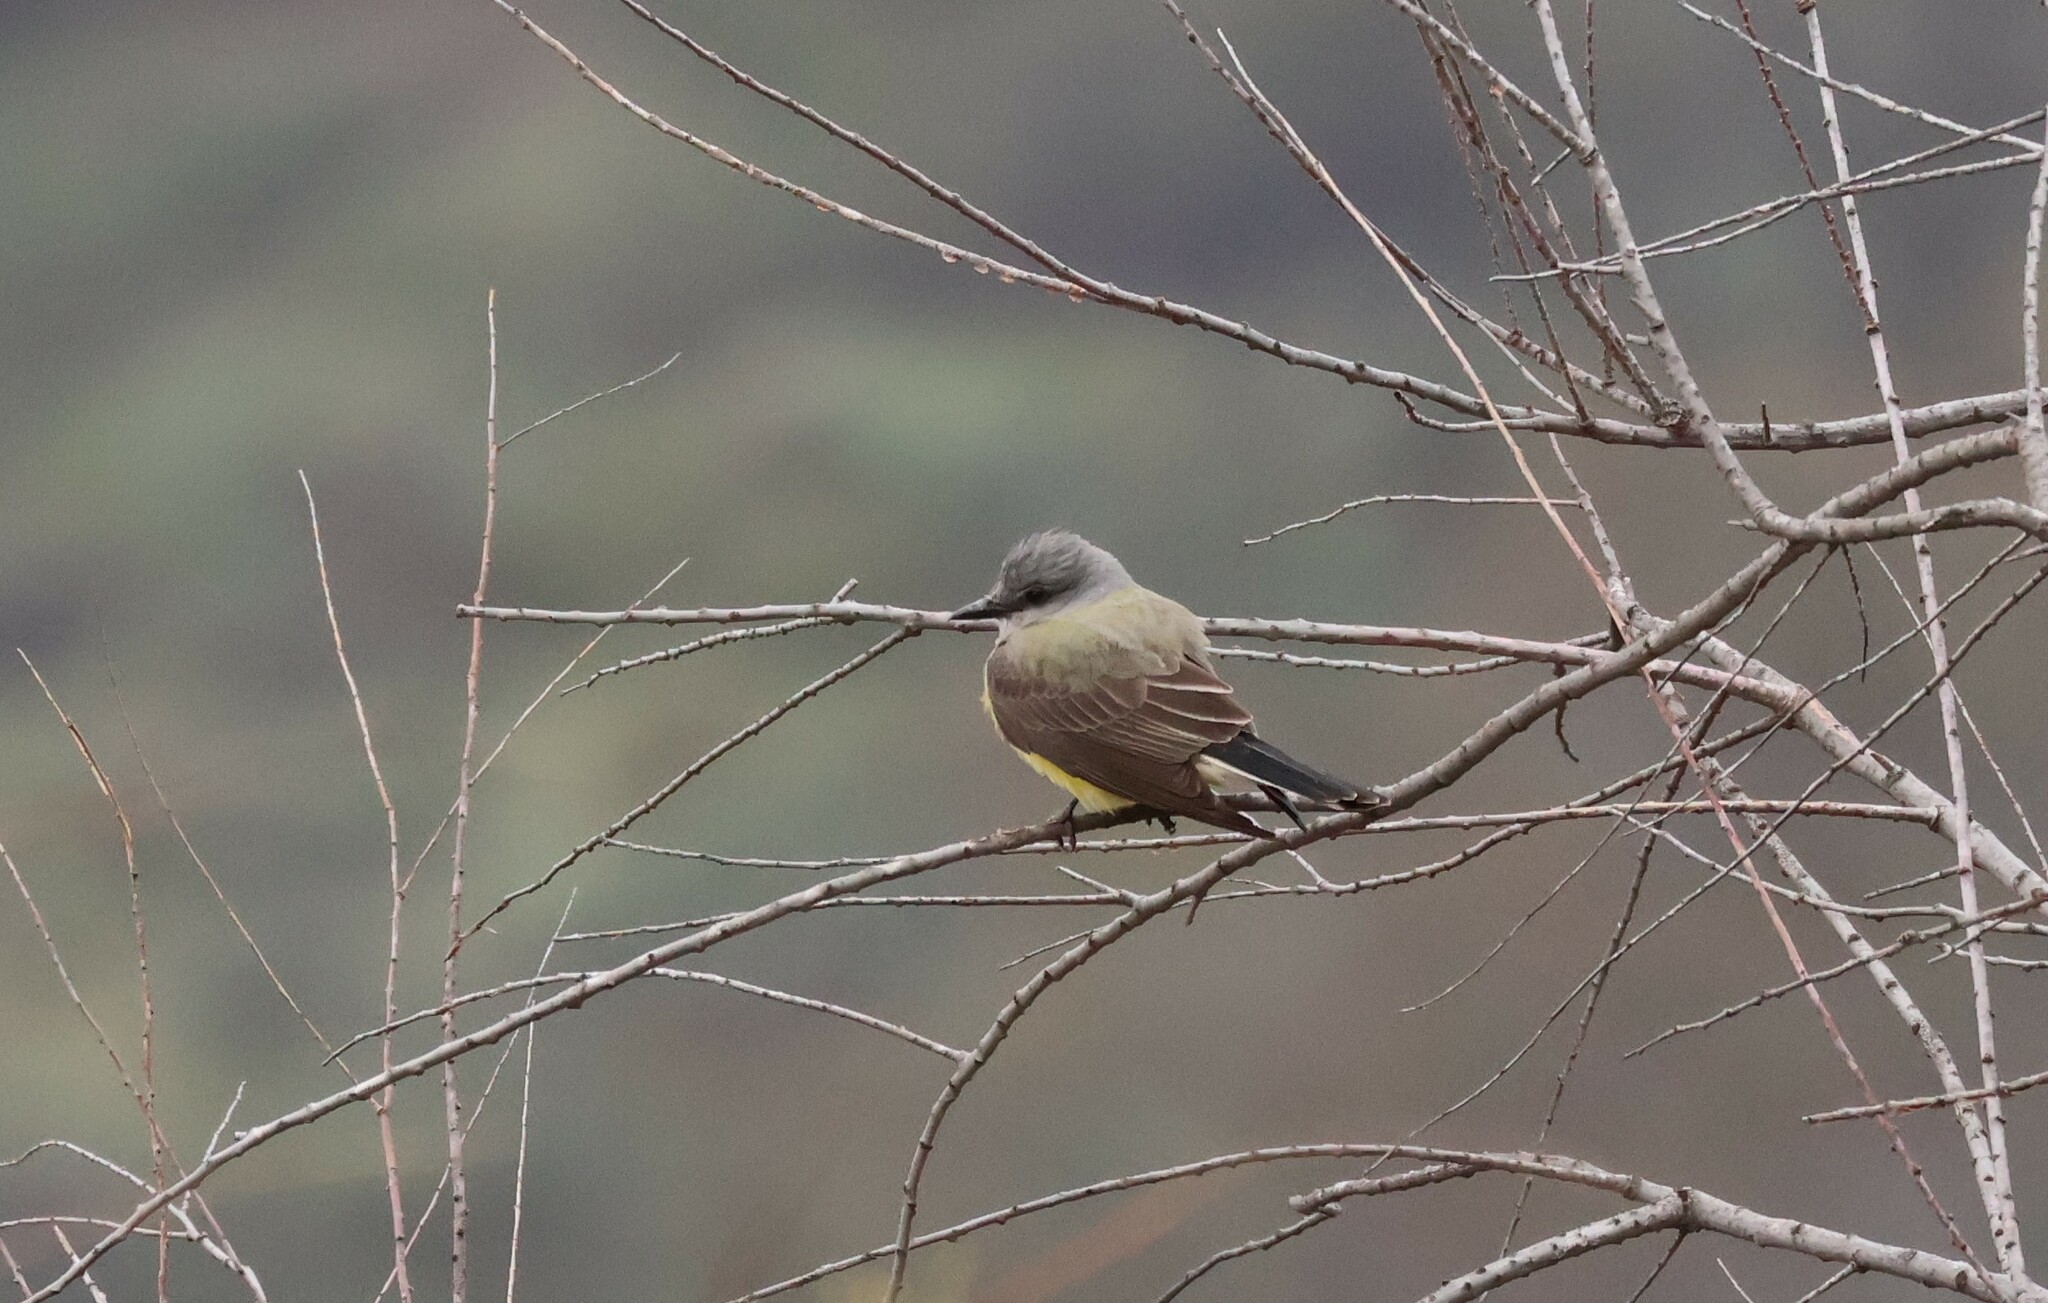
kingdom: Animalia
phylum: Chordata
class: Aves
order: Passeriformes
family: Tyrannidae
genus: Tyrannus
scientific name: Tyrannus verticalis
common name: Western kingbird
